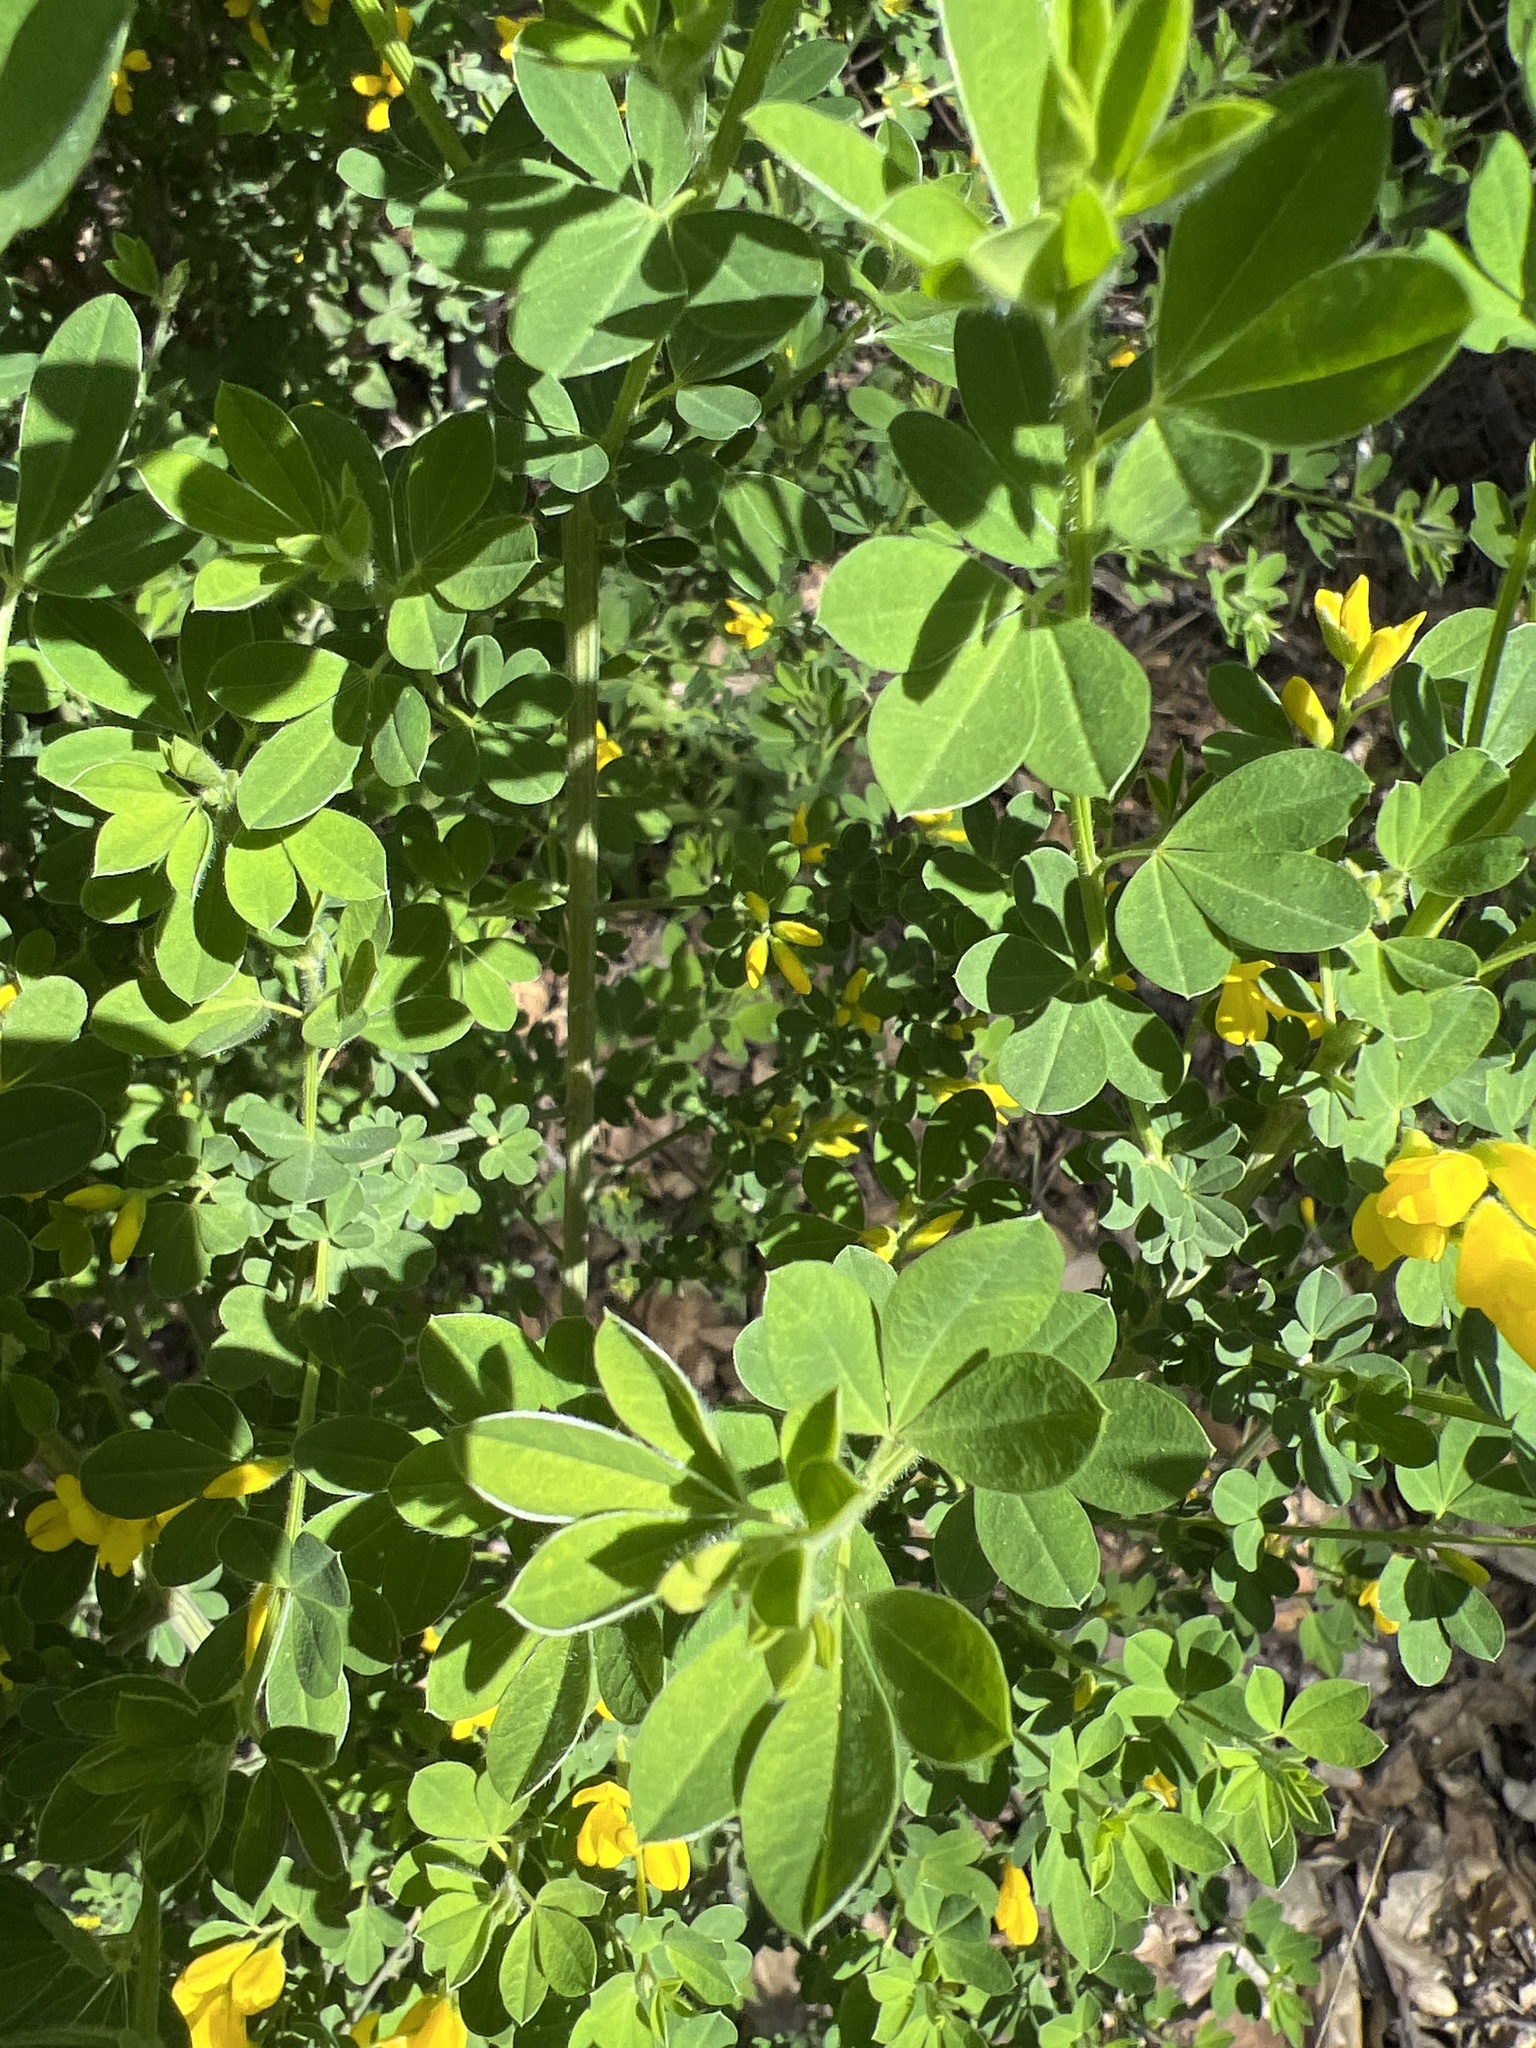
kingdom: Plantae
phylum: Tracheophyta
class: Magnoliopsida
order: Fabales
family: Fabaceae
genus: Genista
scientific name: Genista monspessulana
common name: Montpellier broom
